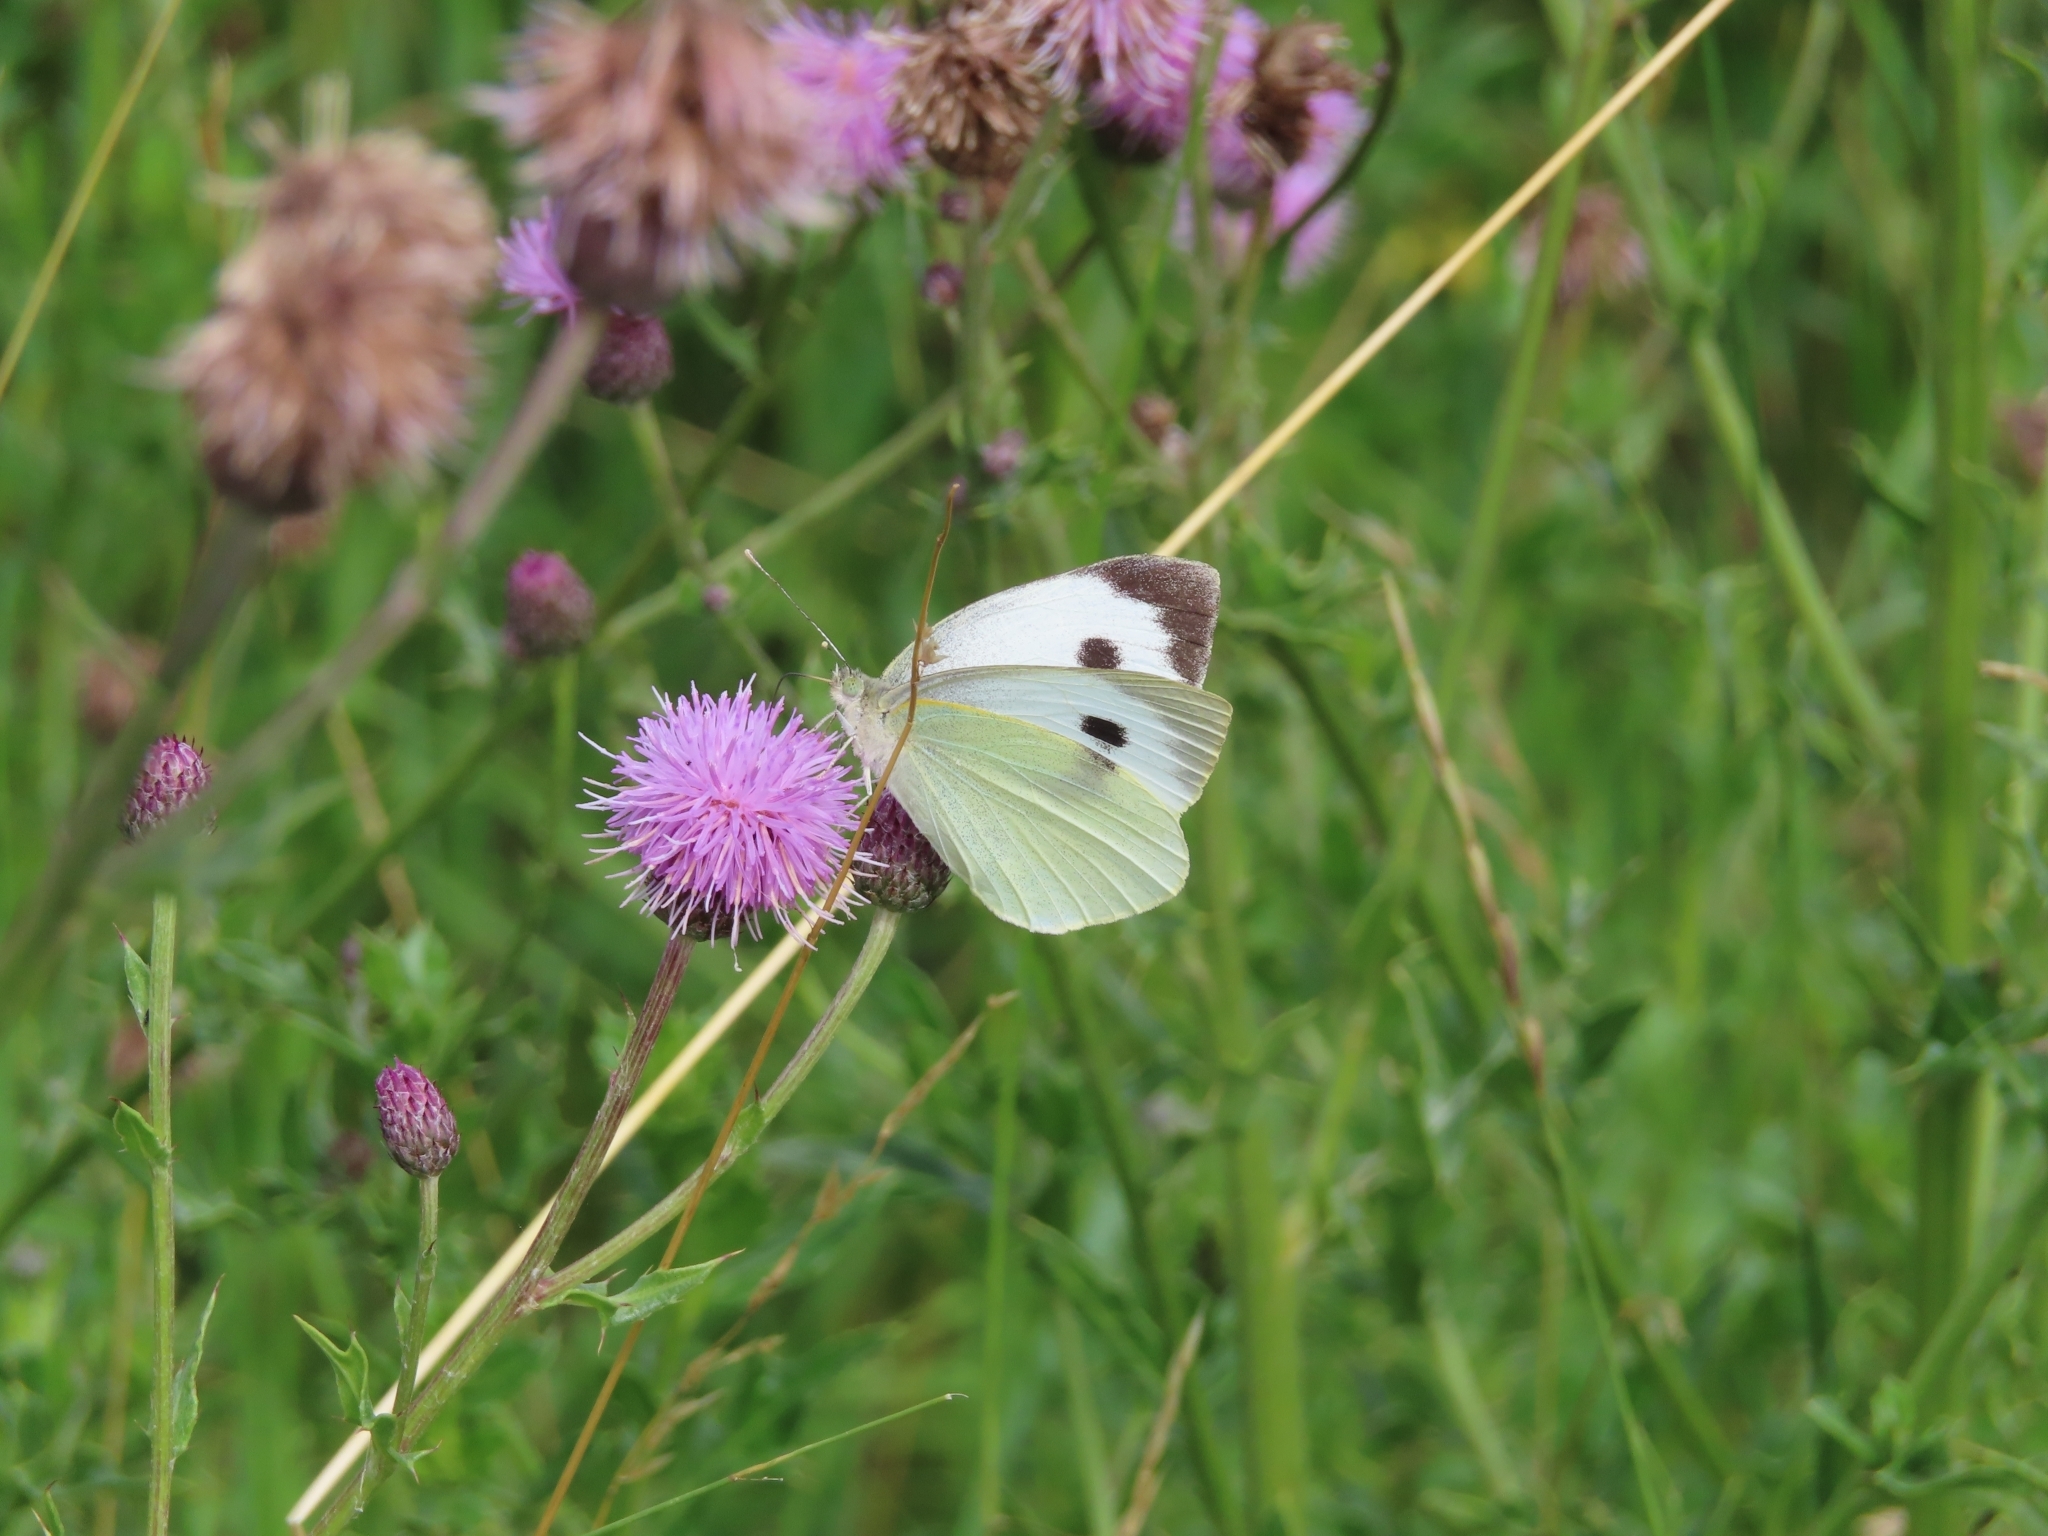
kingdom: Animalia
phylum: Arthropoda
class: Insecta
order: Lepidoptera
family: Pieridae
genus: Pieris
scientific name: Pieris brassicae
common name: Large white
